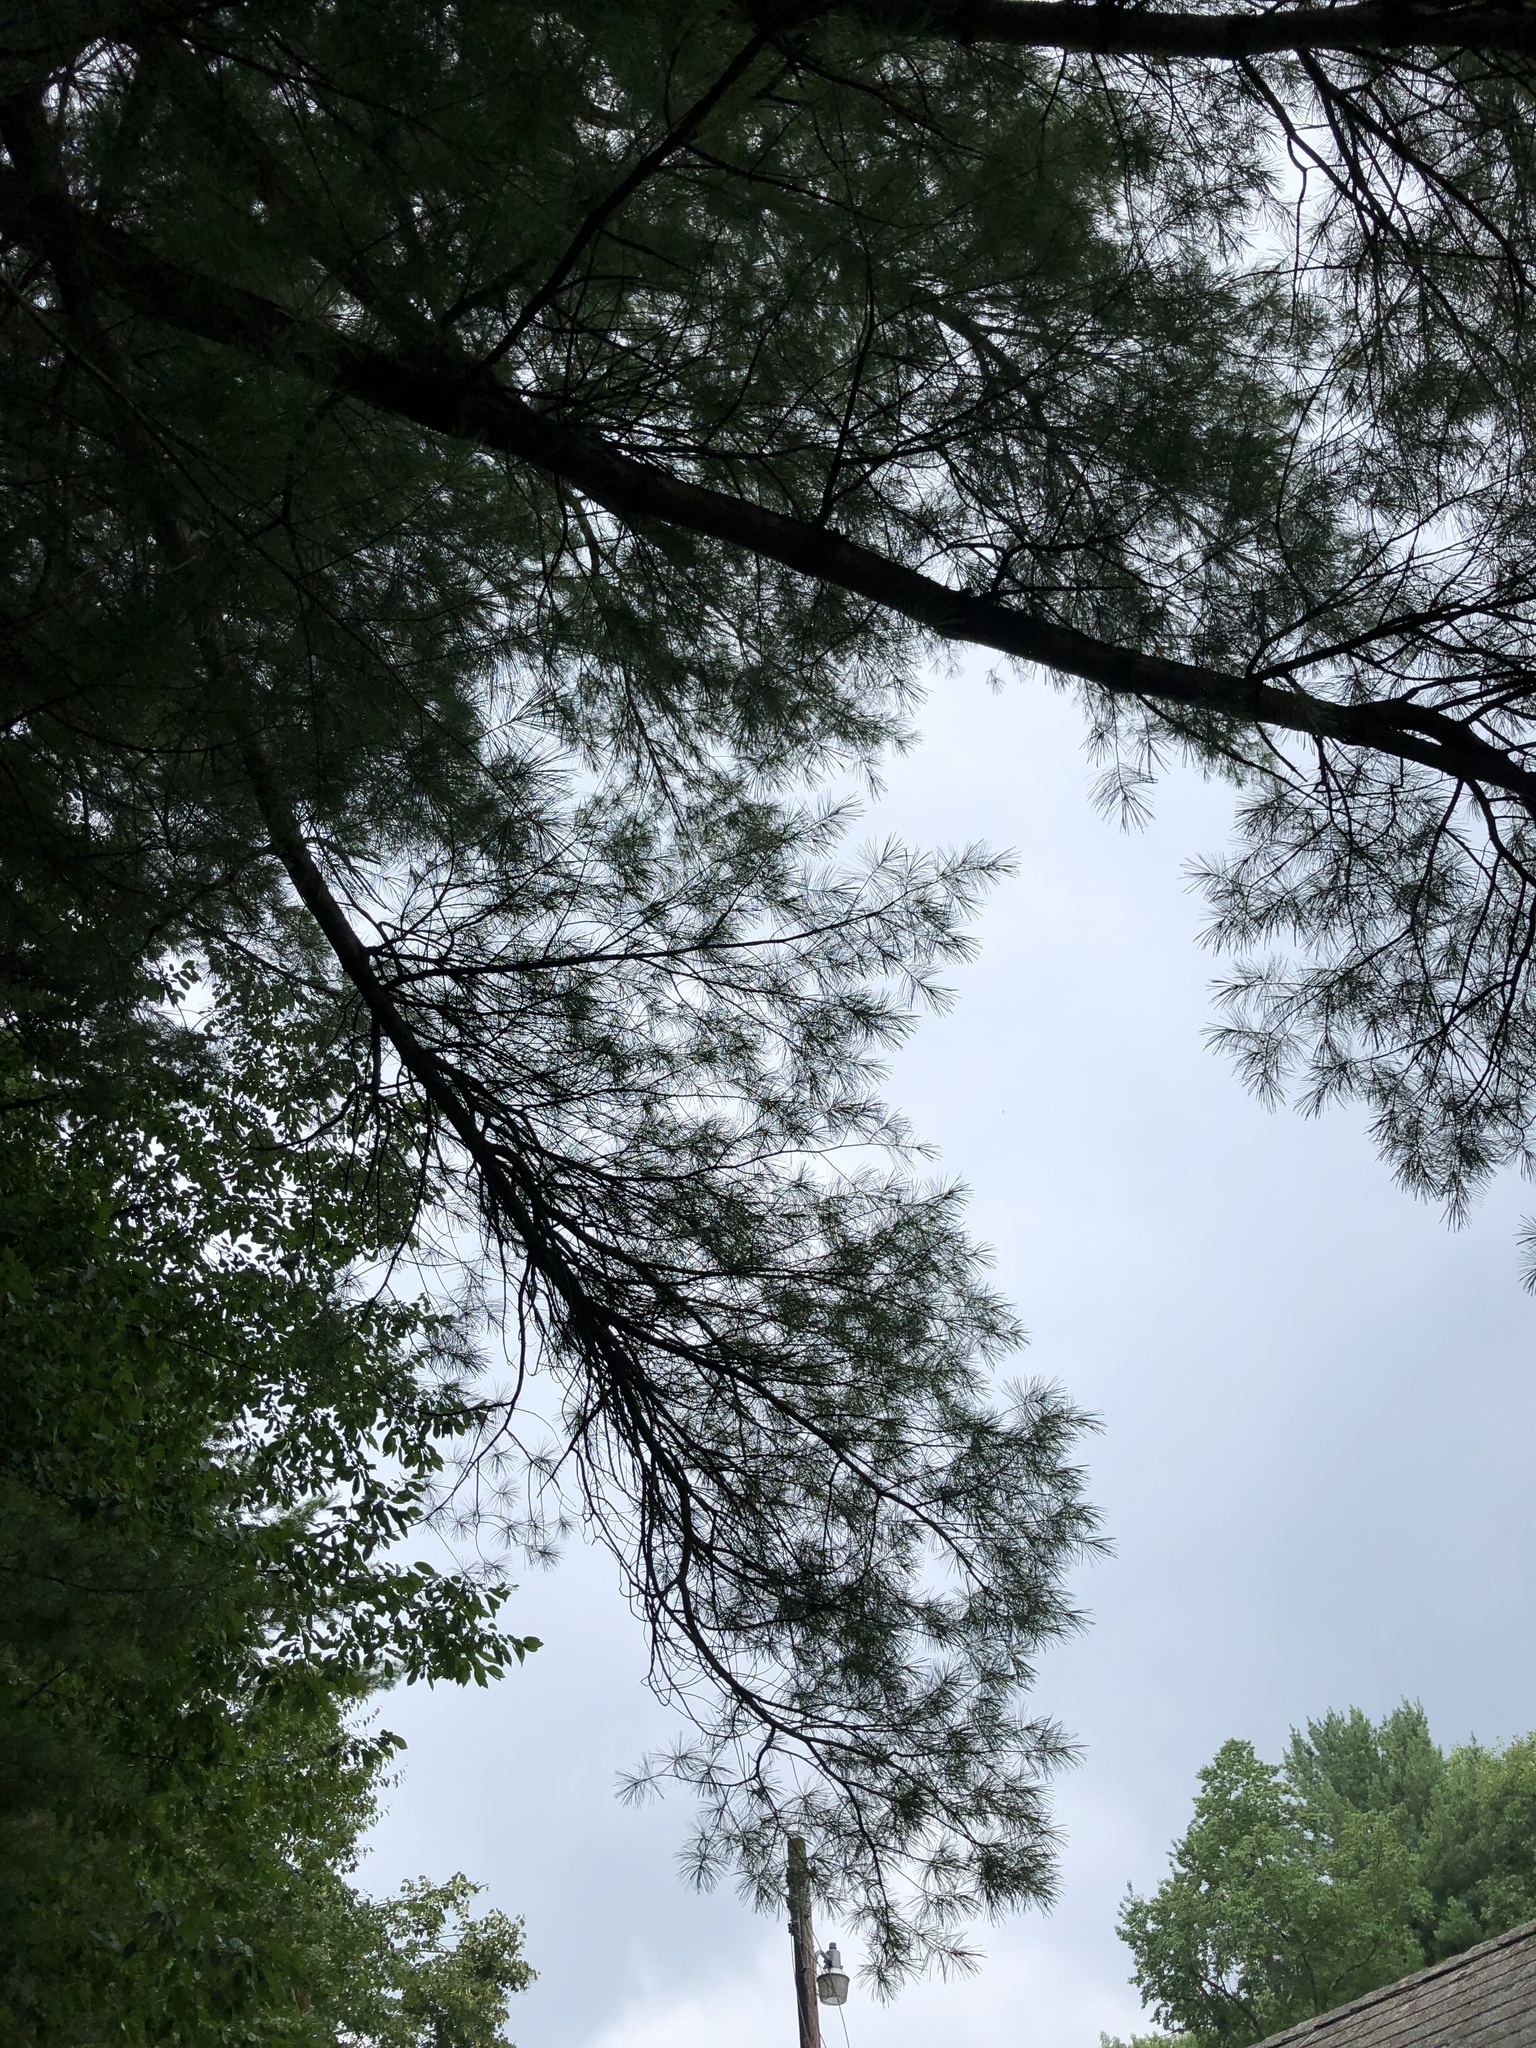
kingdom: Plantae
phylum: Tracheophyta
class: Pinopsida
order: Pinales
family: Pinaceae
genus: Pinus
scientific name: Pinus strobus
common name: Weymouth pine
